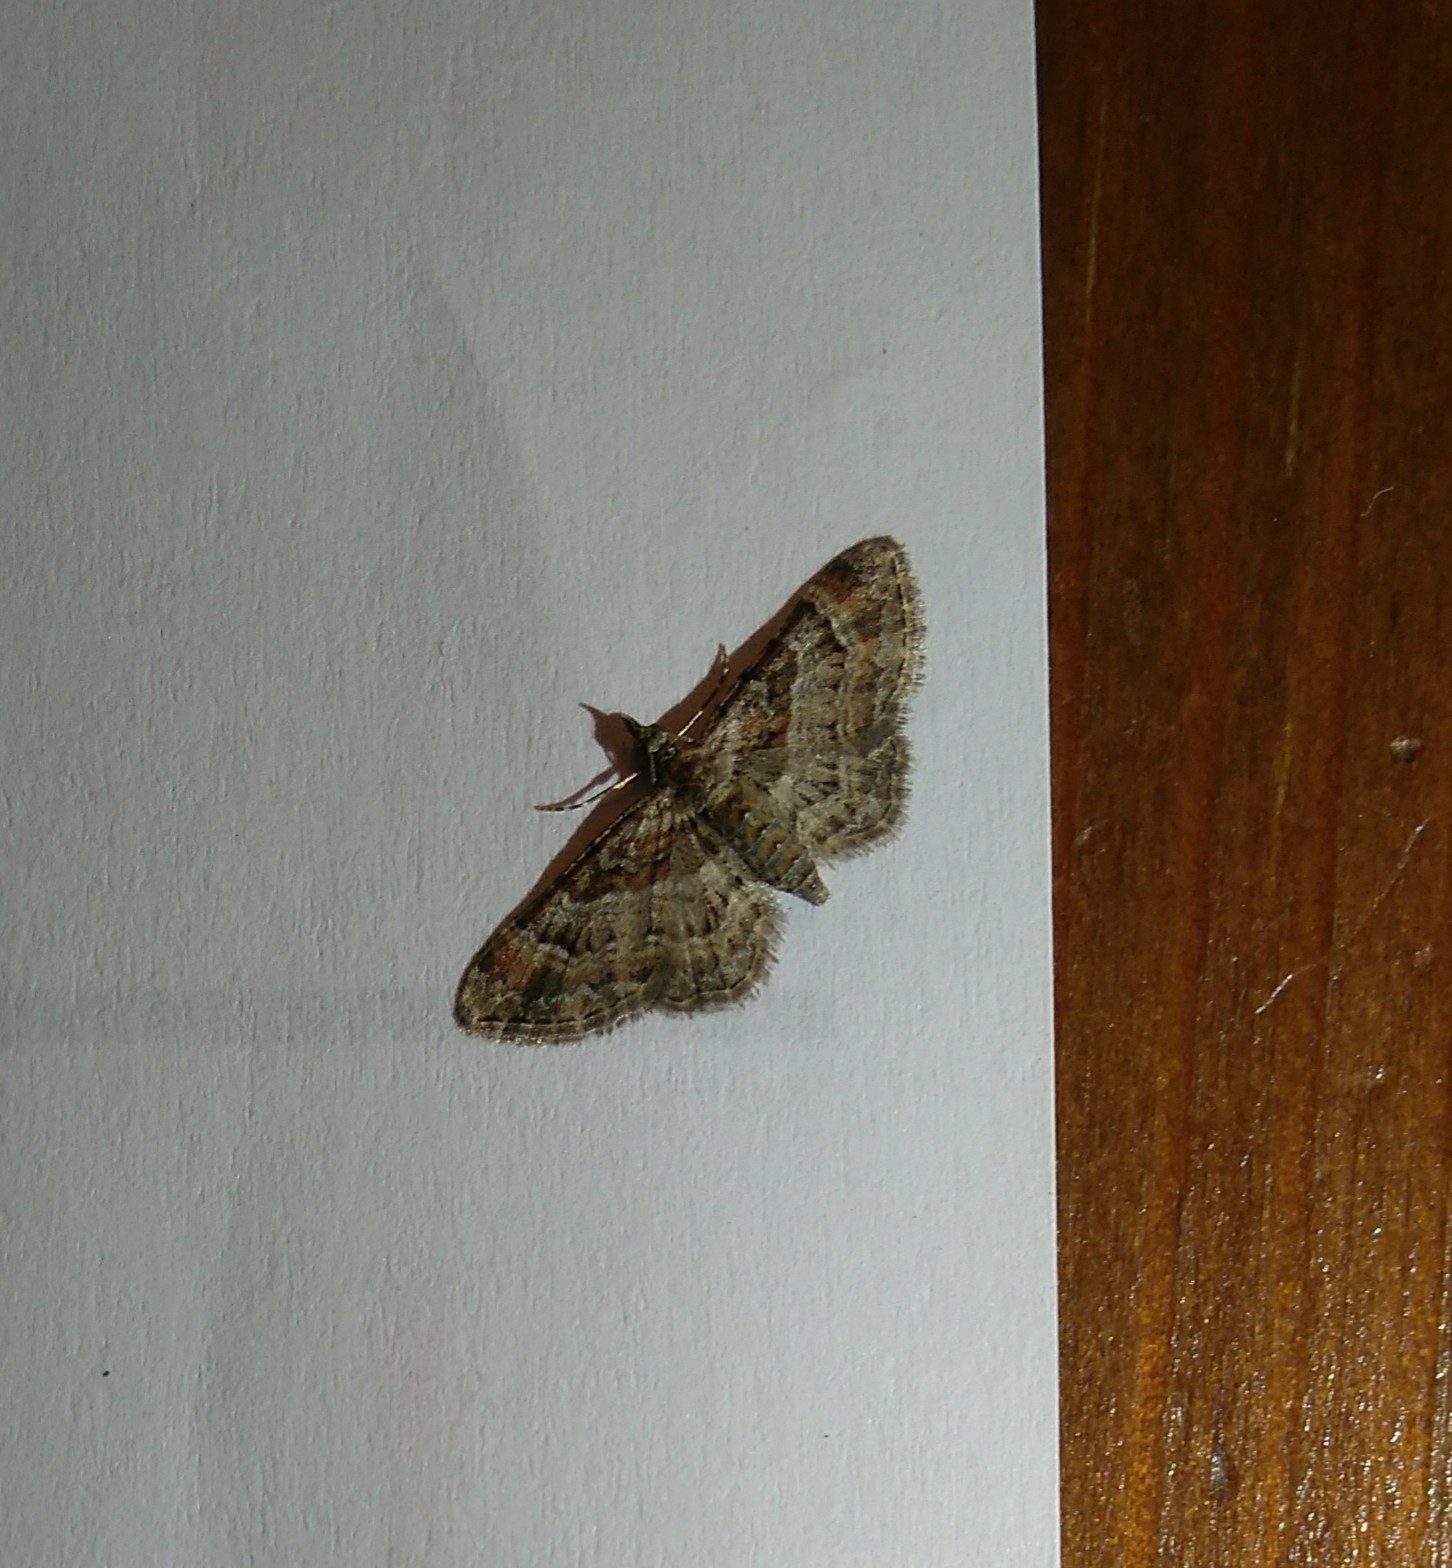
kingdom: Animalia
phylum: Arthropoda
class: Insecta
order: Lepidoptera
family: Geometridae
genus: Gymnoscelis
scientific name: Gymnoscelis rufifasciata
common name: Double-striped pug
